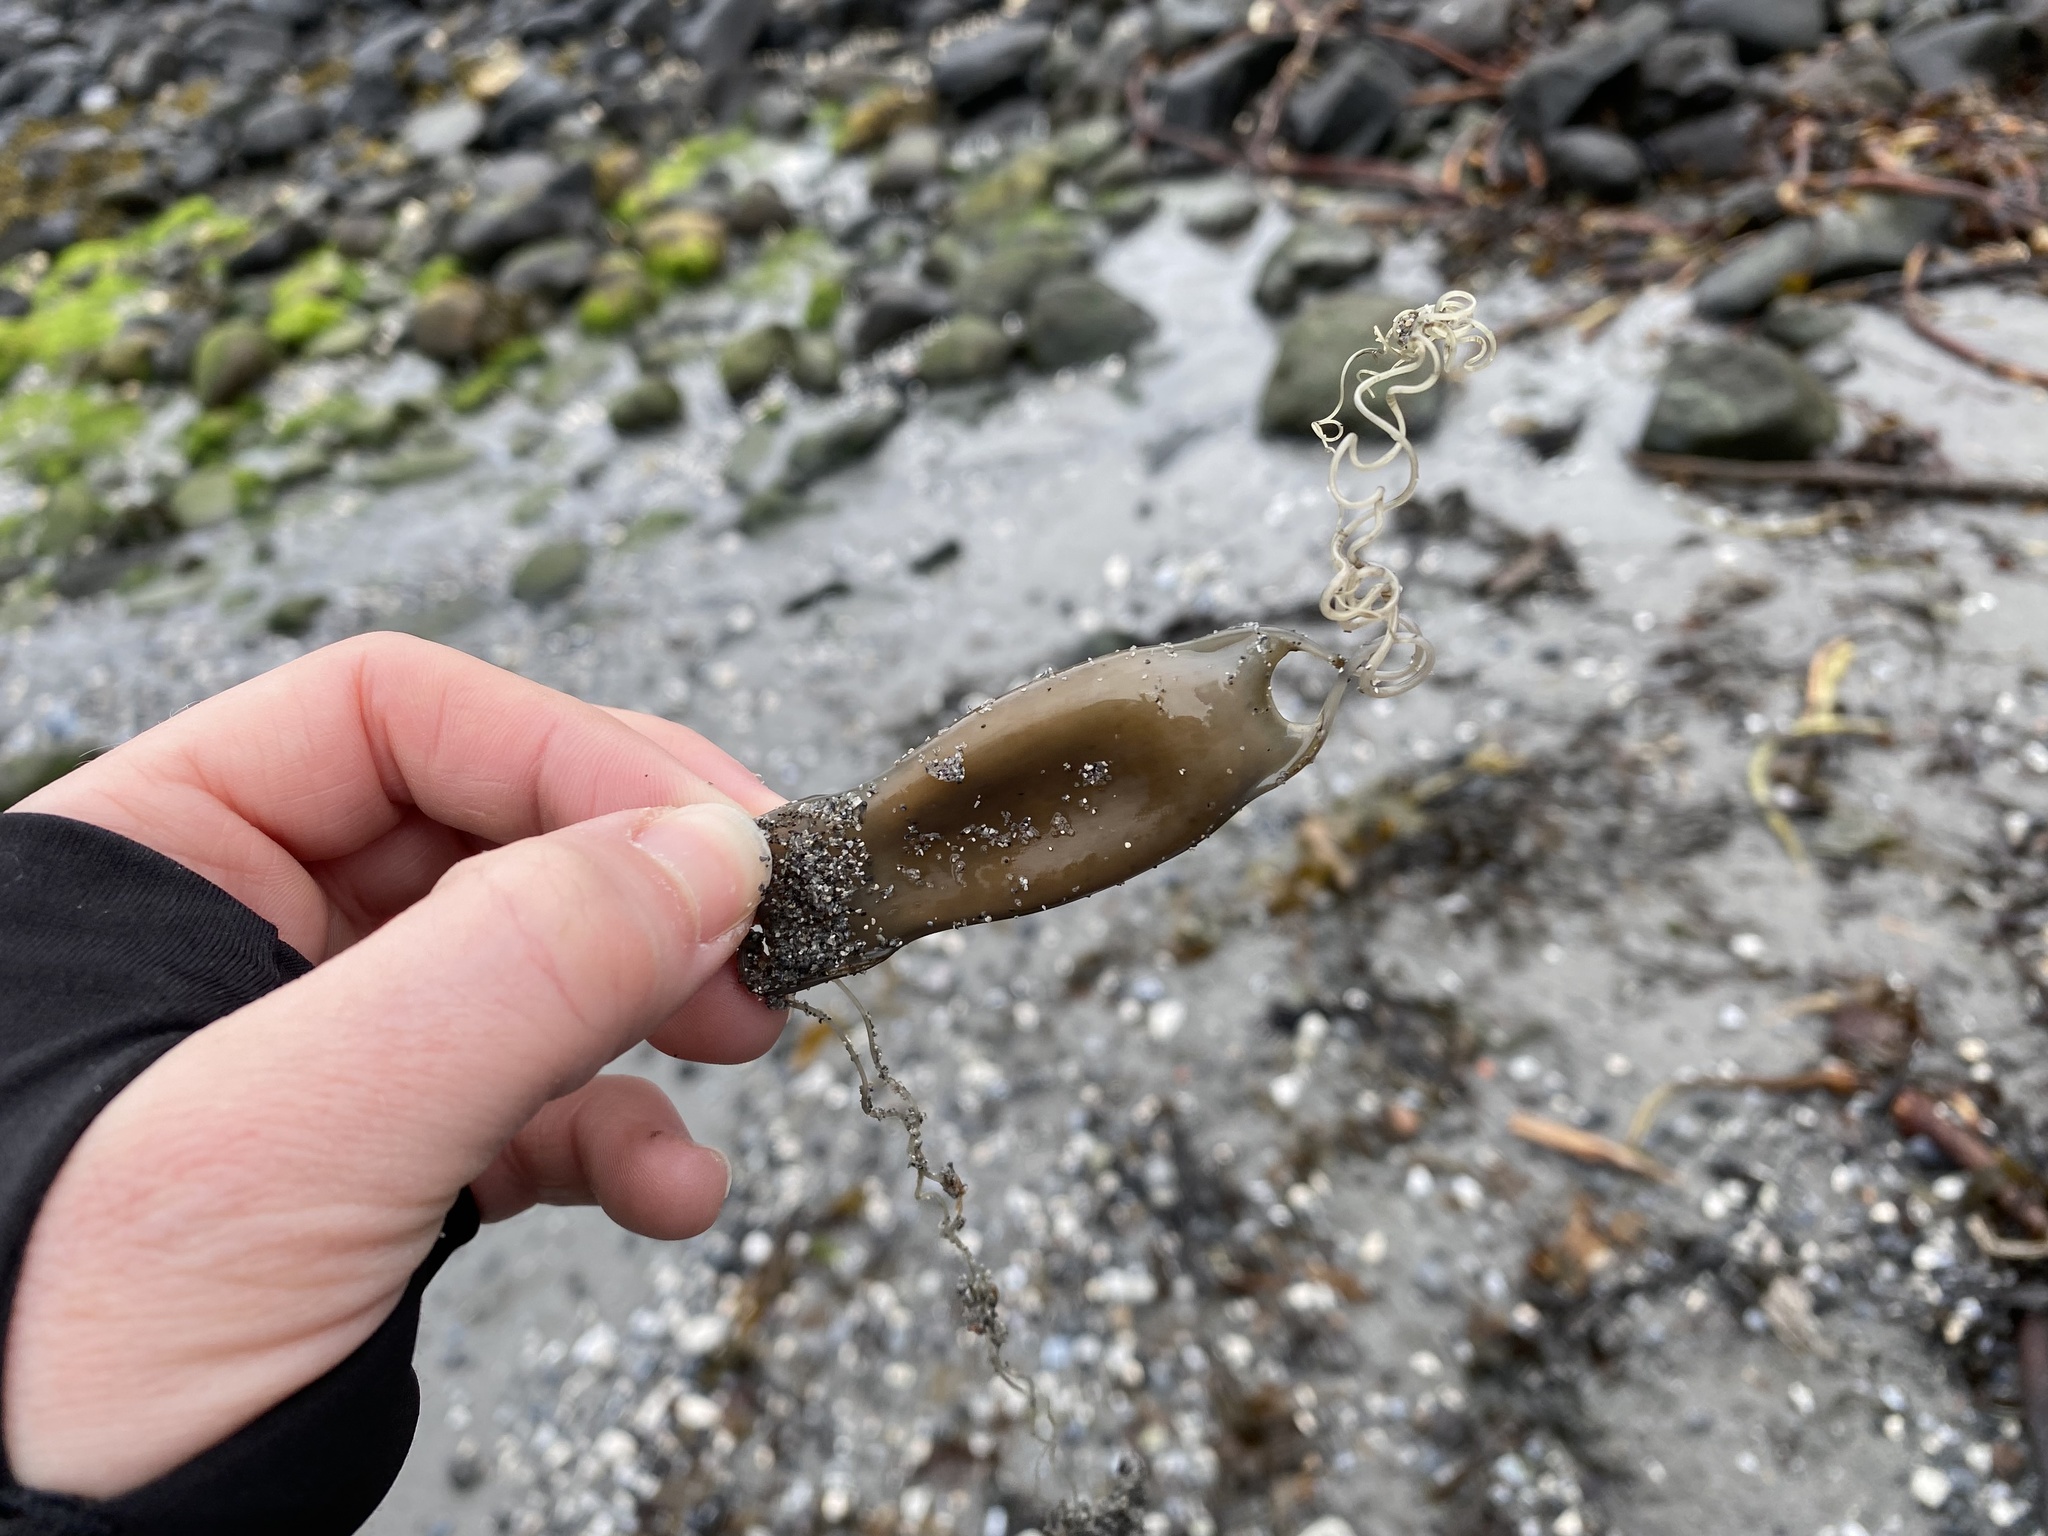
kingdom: Animalia
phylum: Chordata
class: Elasmobranchii
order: Carcharhiniformes
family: Scyliorhinidae
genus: Scyliorhinus
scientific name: Scyliorhinus canicula
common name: Lesser spotted dogfish
